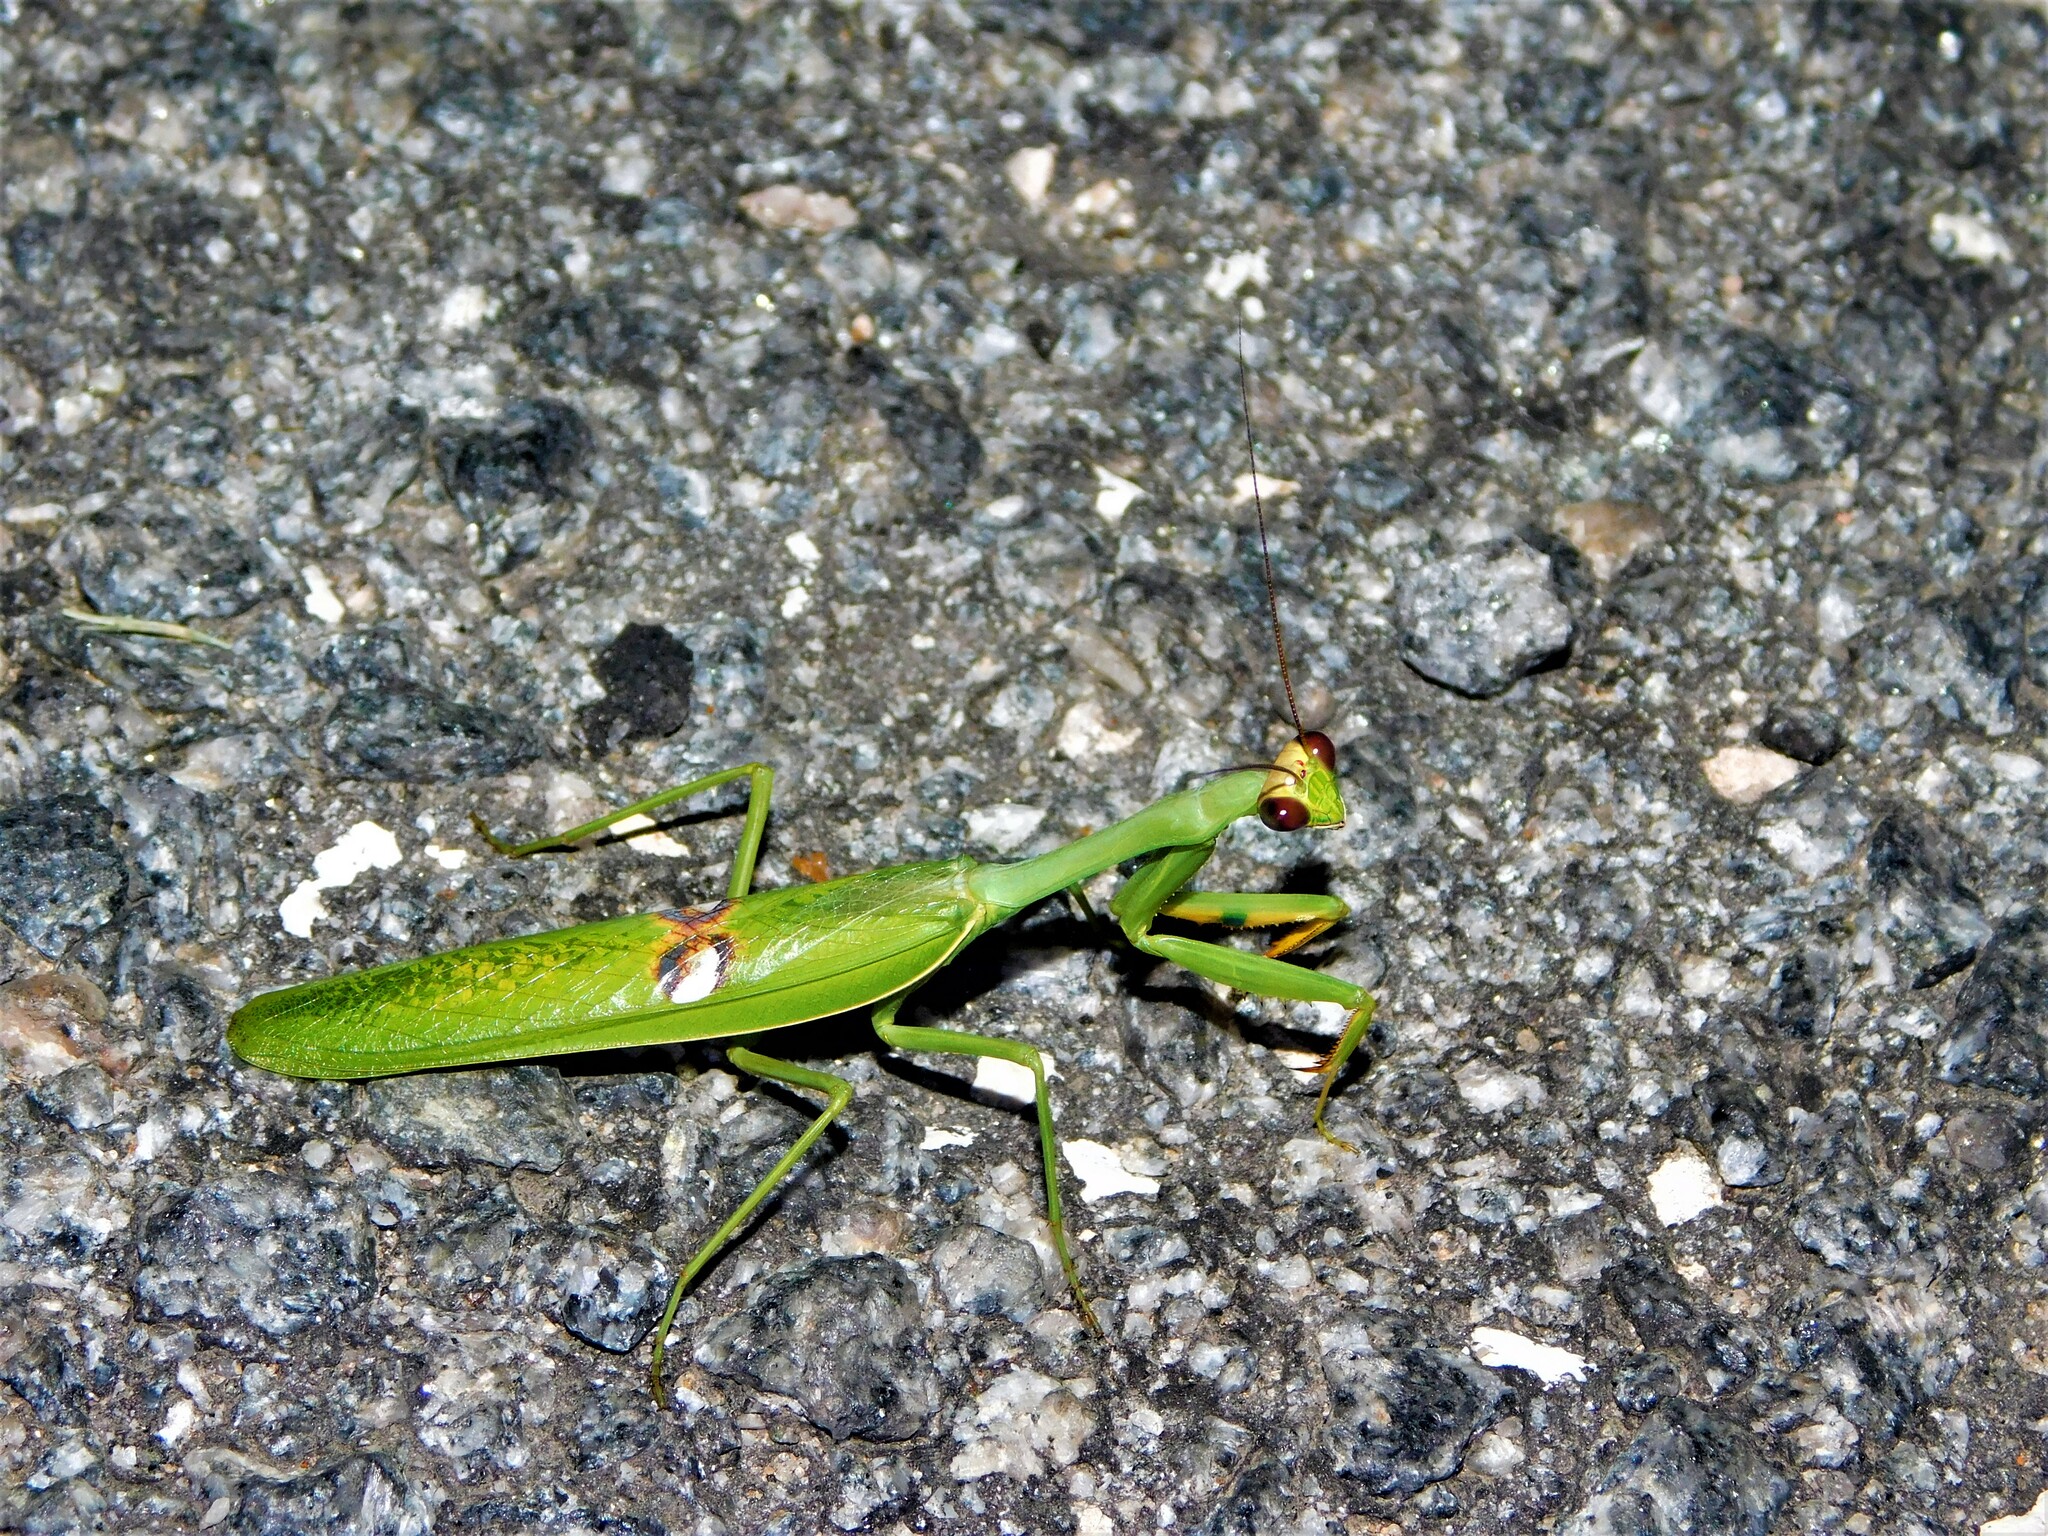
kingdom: Animalia
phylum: Arthropoda
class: Insecta
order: Mantodea
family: Mantidae
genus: Stagmatoptera
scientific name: Stagmatoptera hyaloptera
